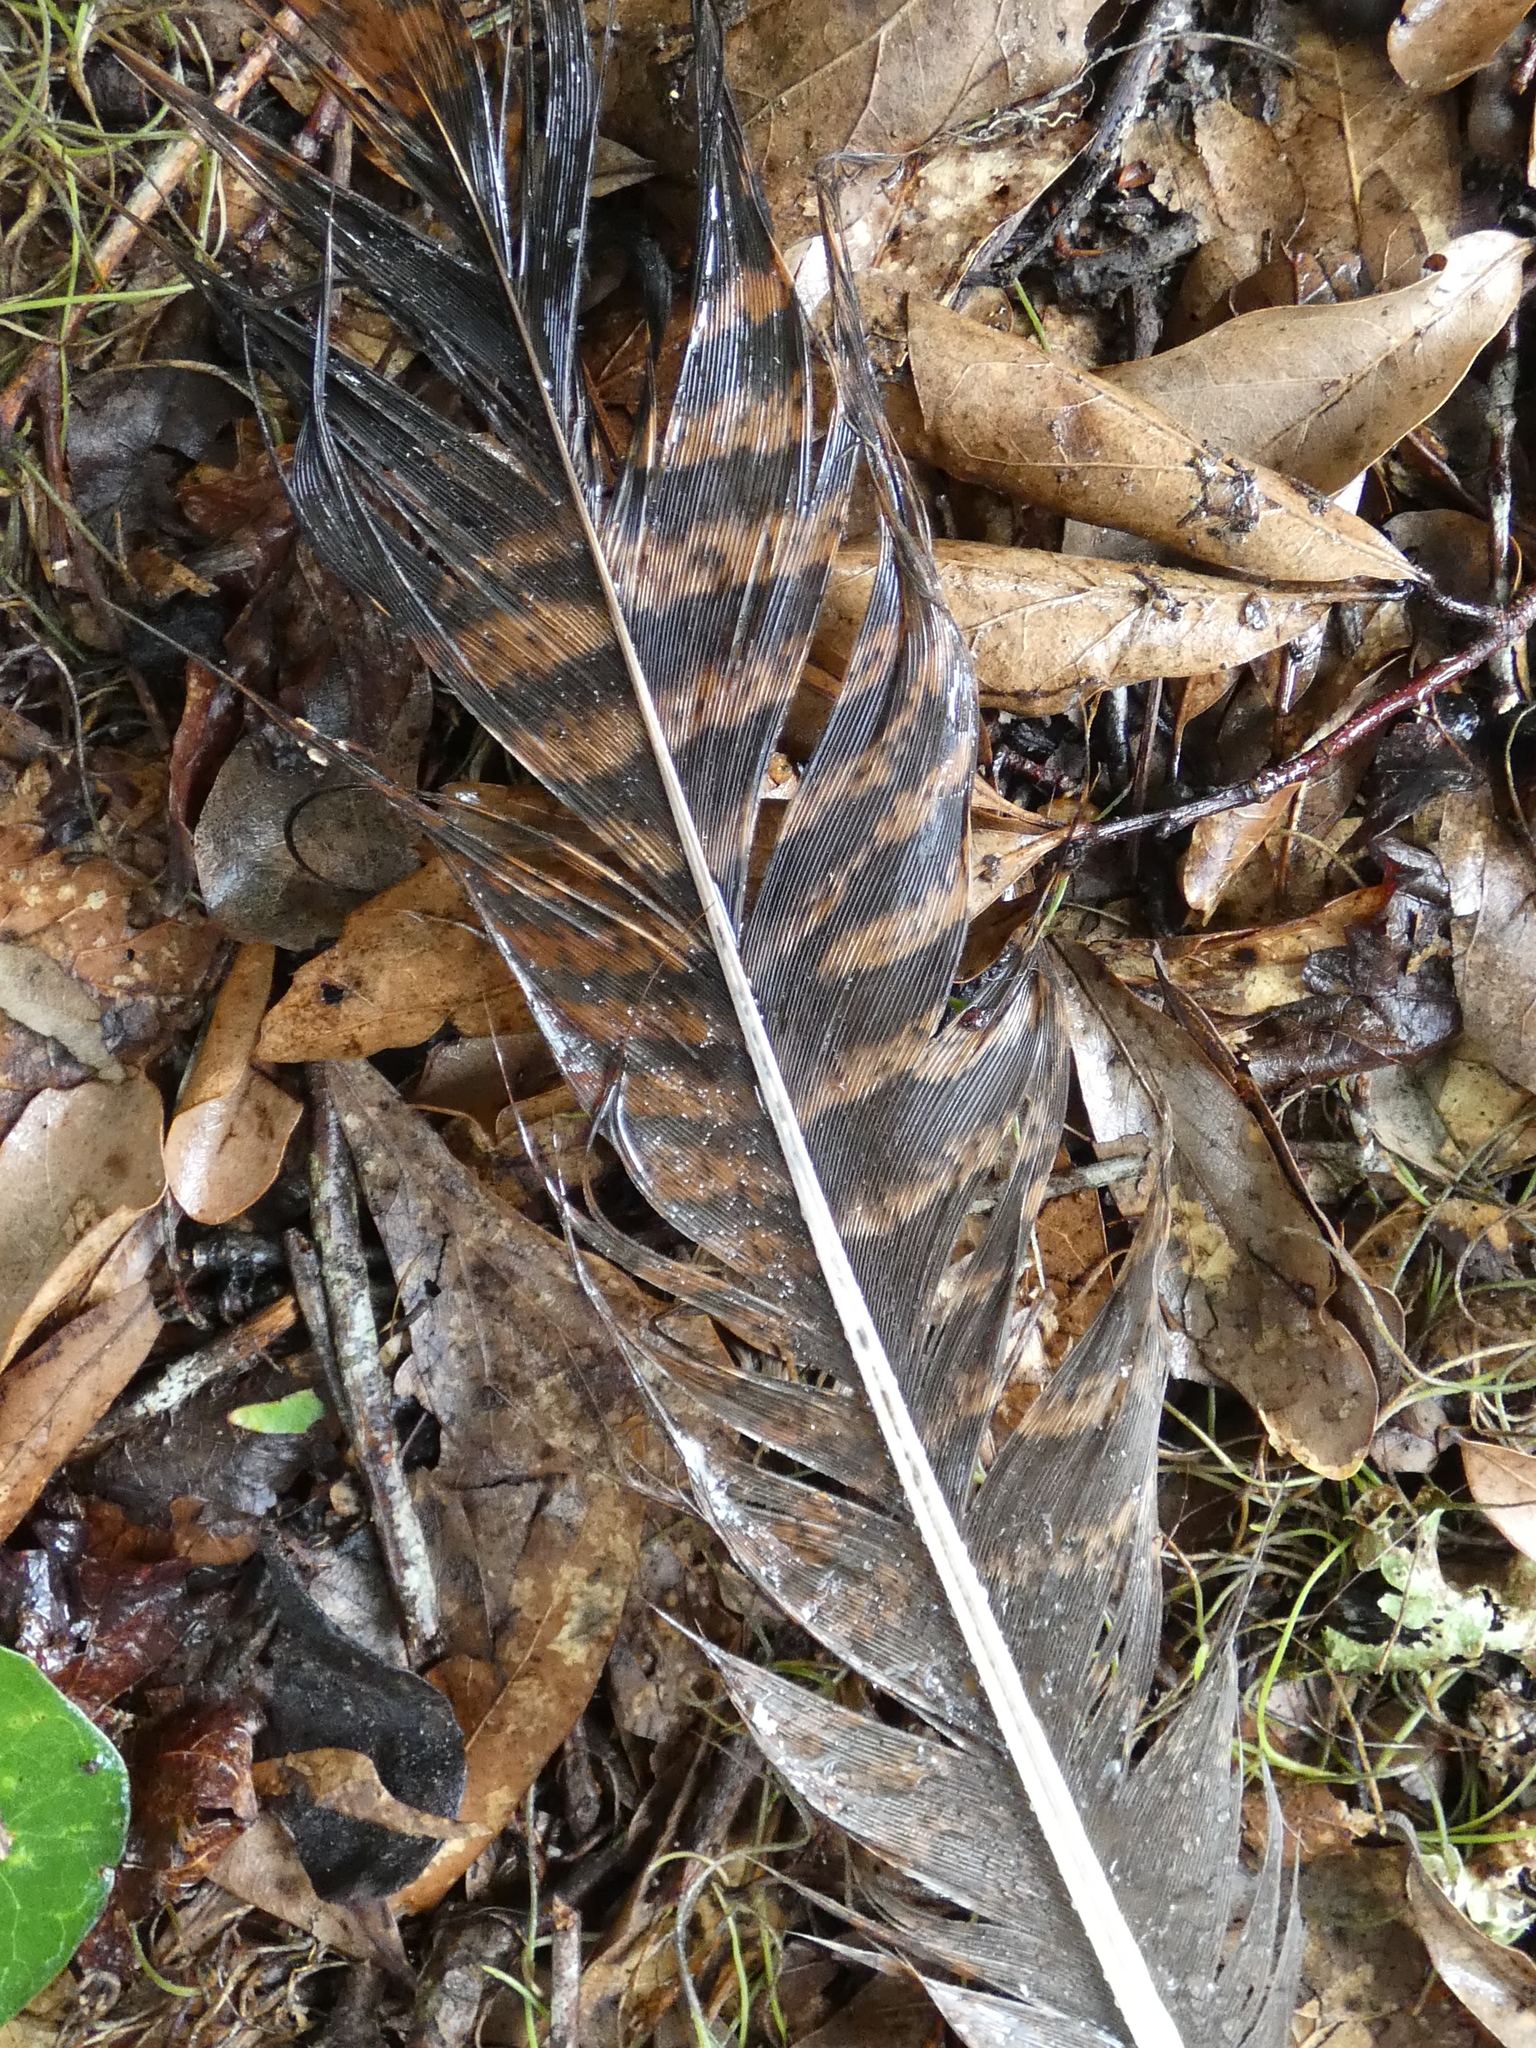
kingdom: Animalia
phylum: Chordata
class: Aves
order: Galliformes
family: Phasianidae
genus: Meleagris
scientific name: Meleagris gallopavo
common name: Wild turkey
